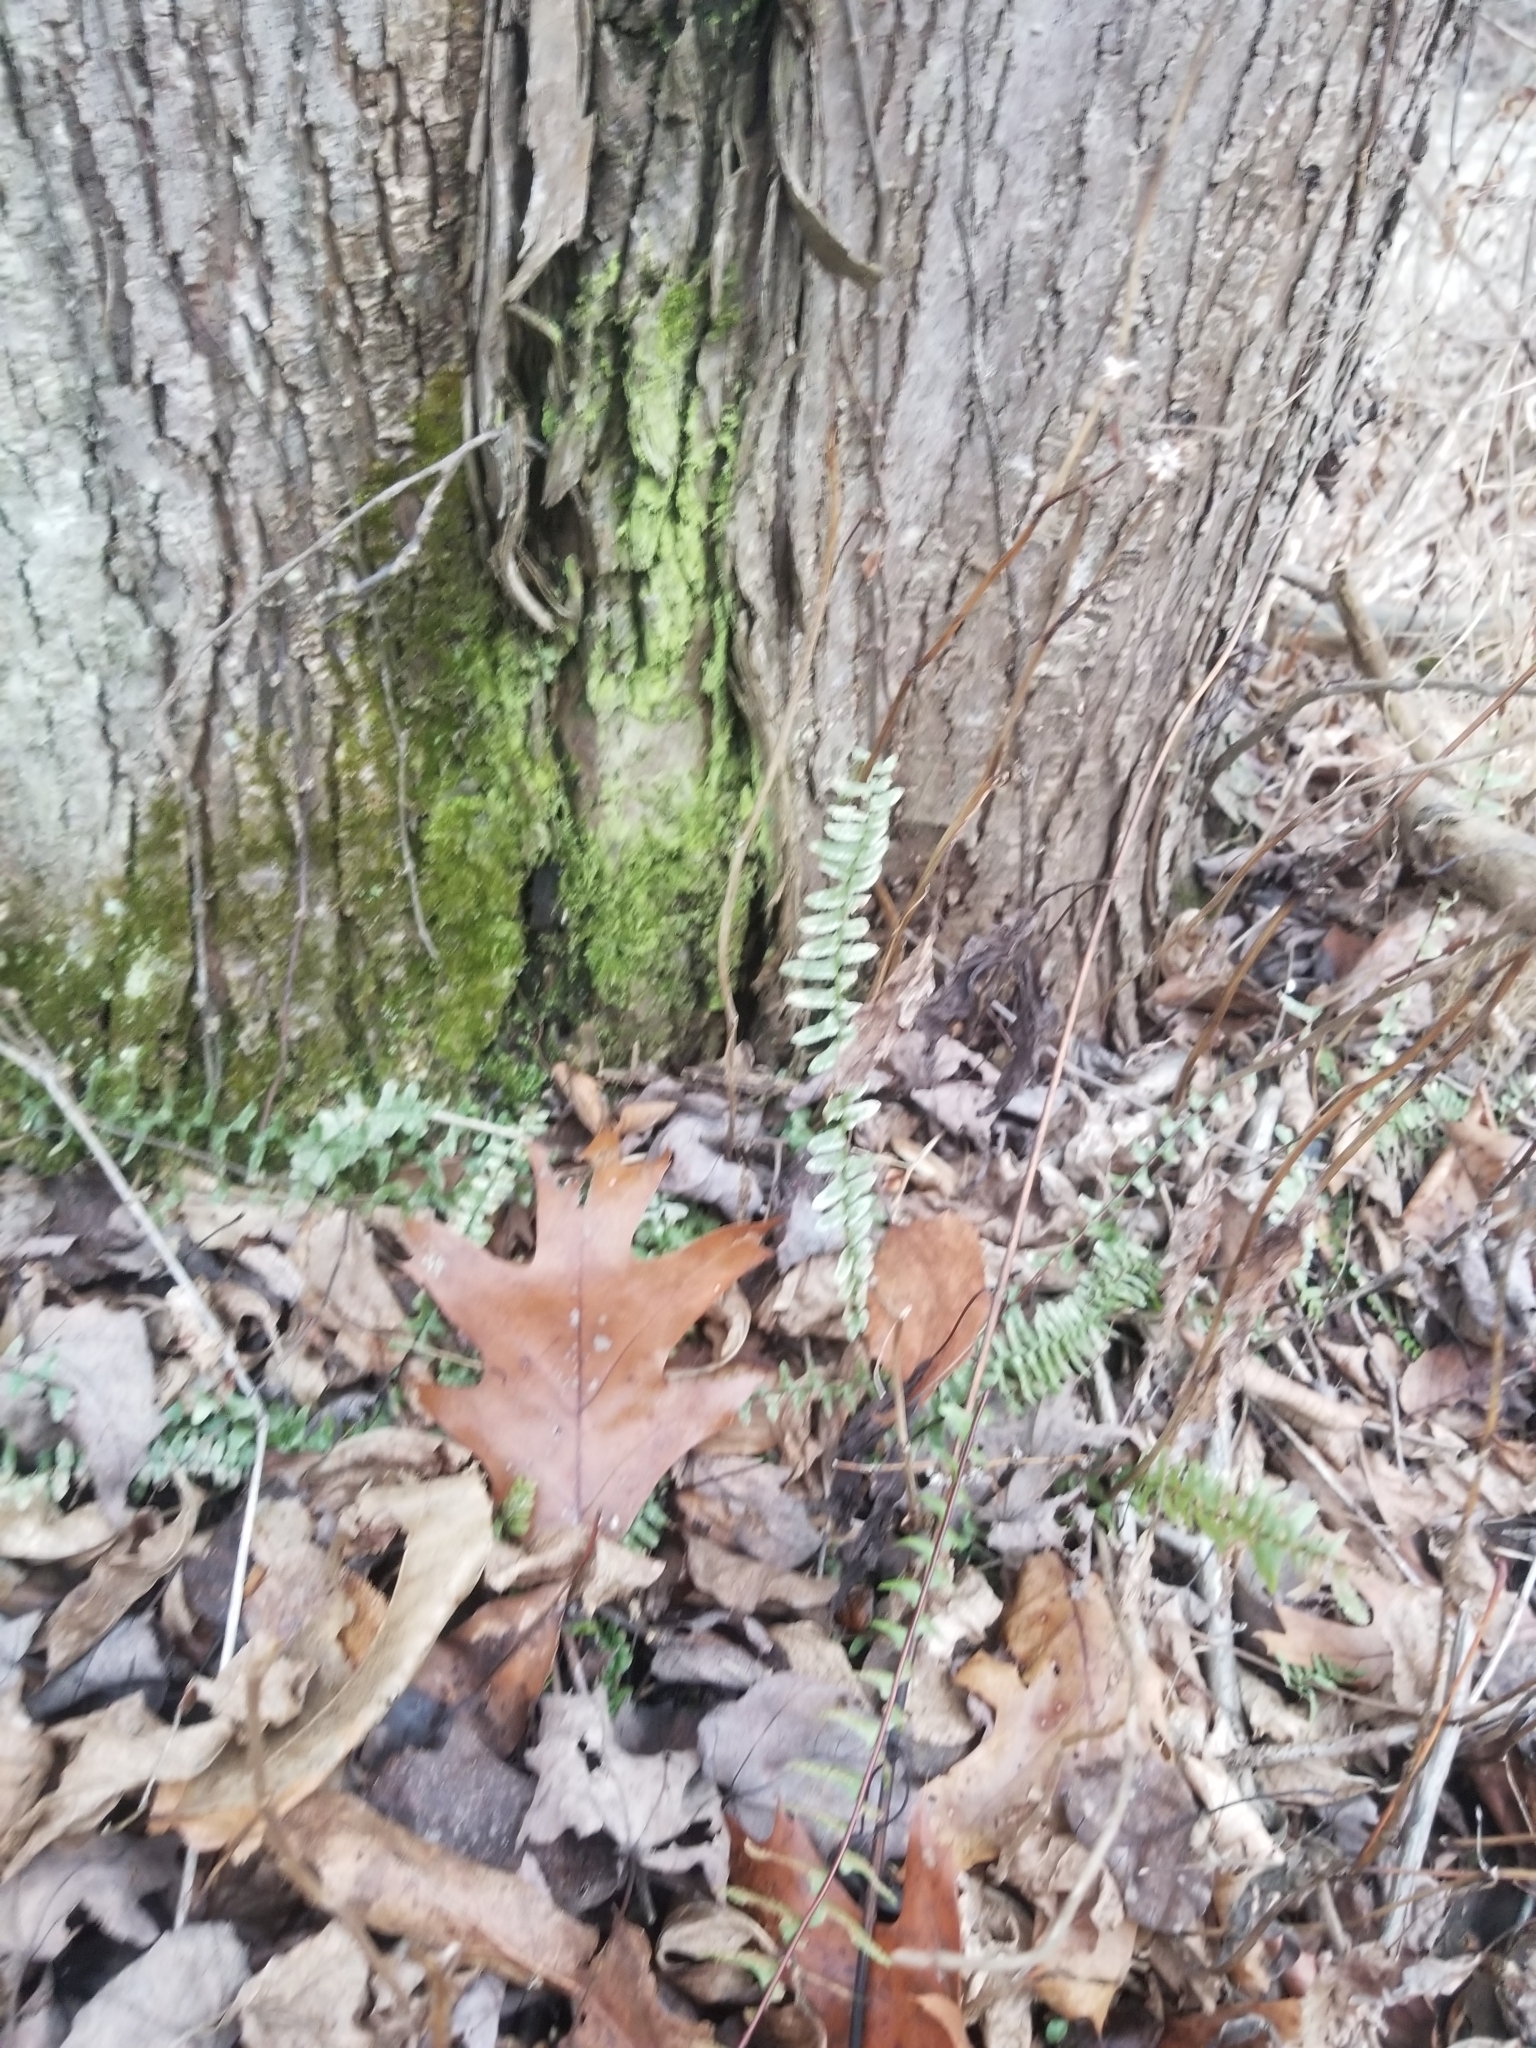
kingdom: Plantae
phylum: Tracheophyta
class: Polypodiopsida
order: Polypodiales
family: Aspleniaceae
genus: Asplenium
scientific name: Asplenium platyneuron
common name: Ebony spleenwort
